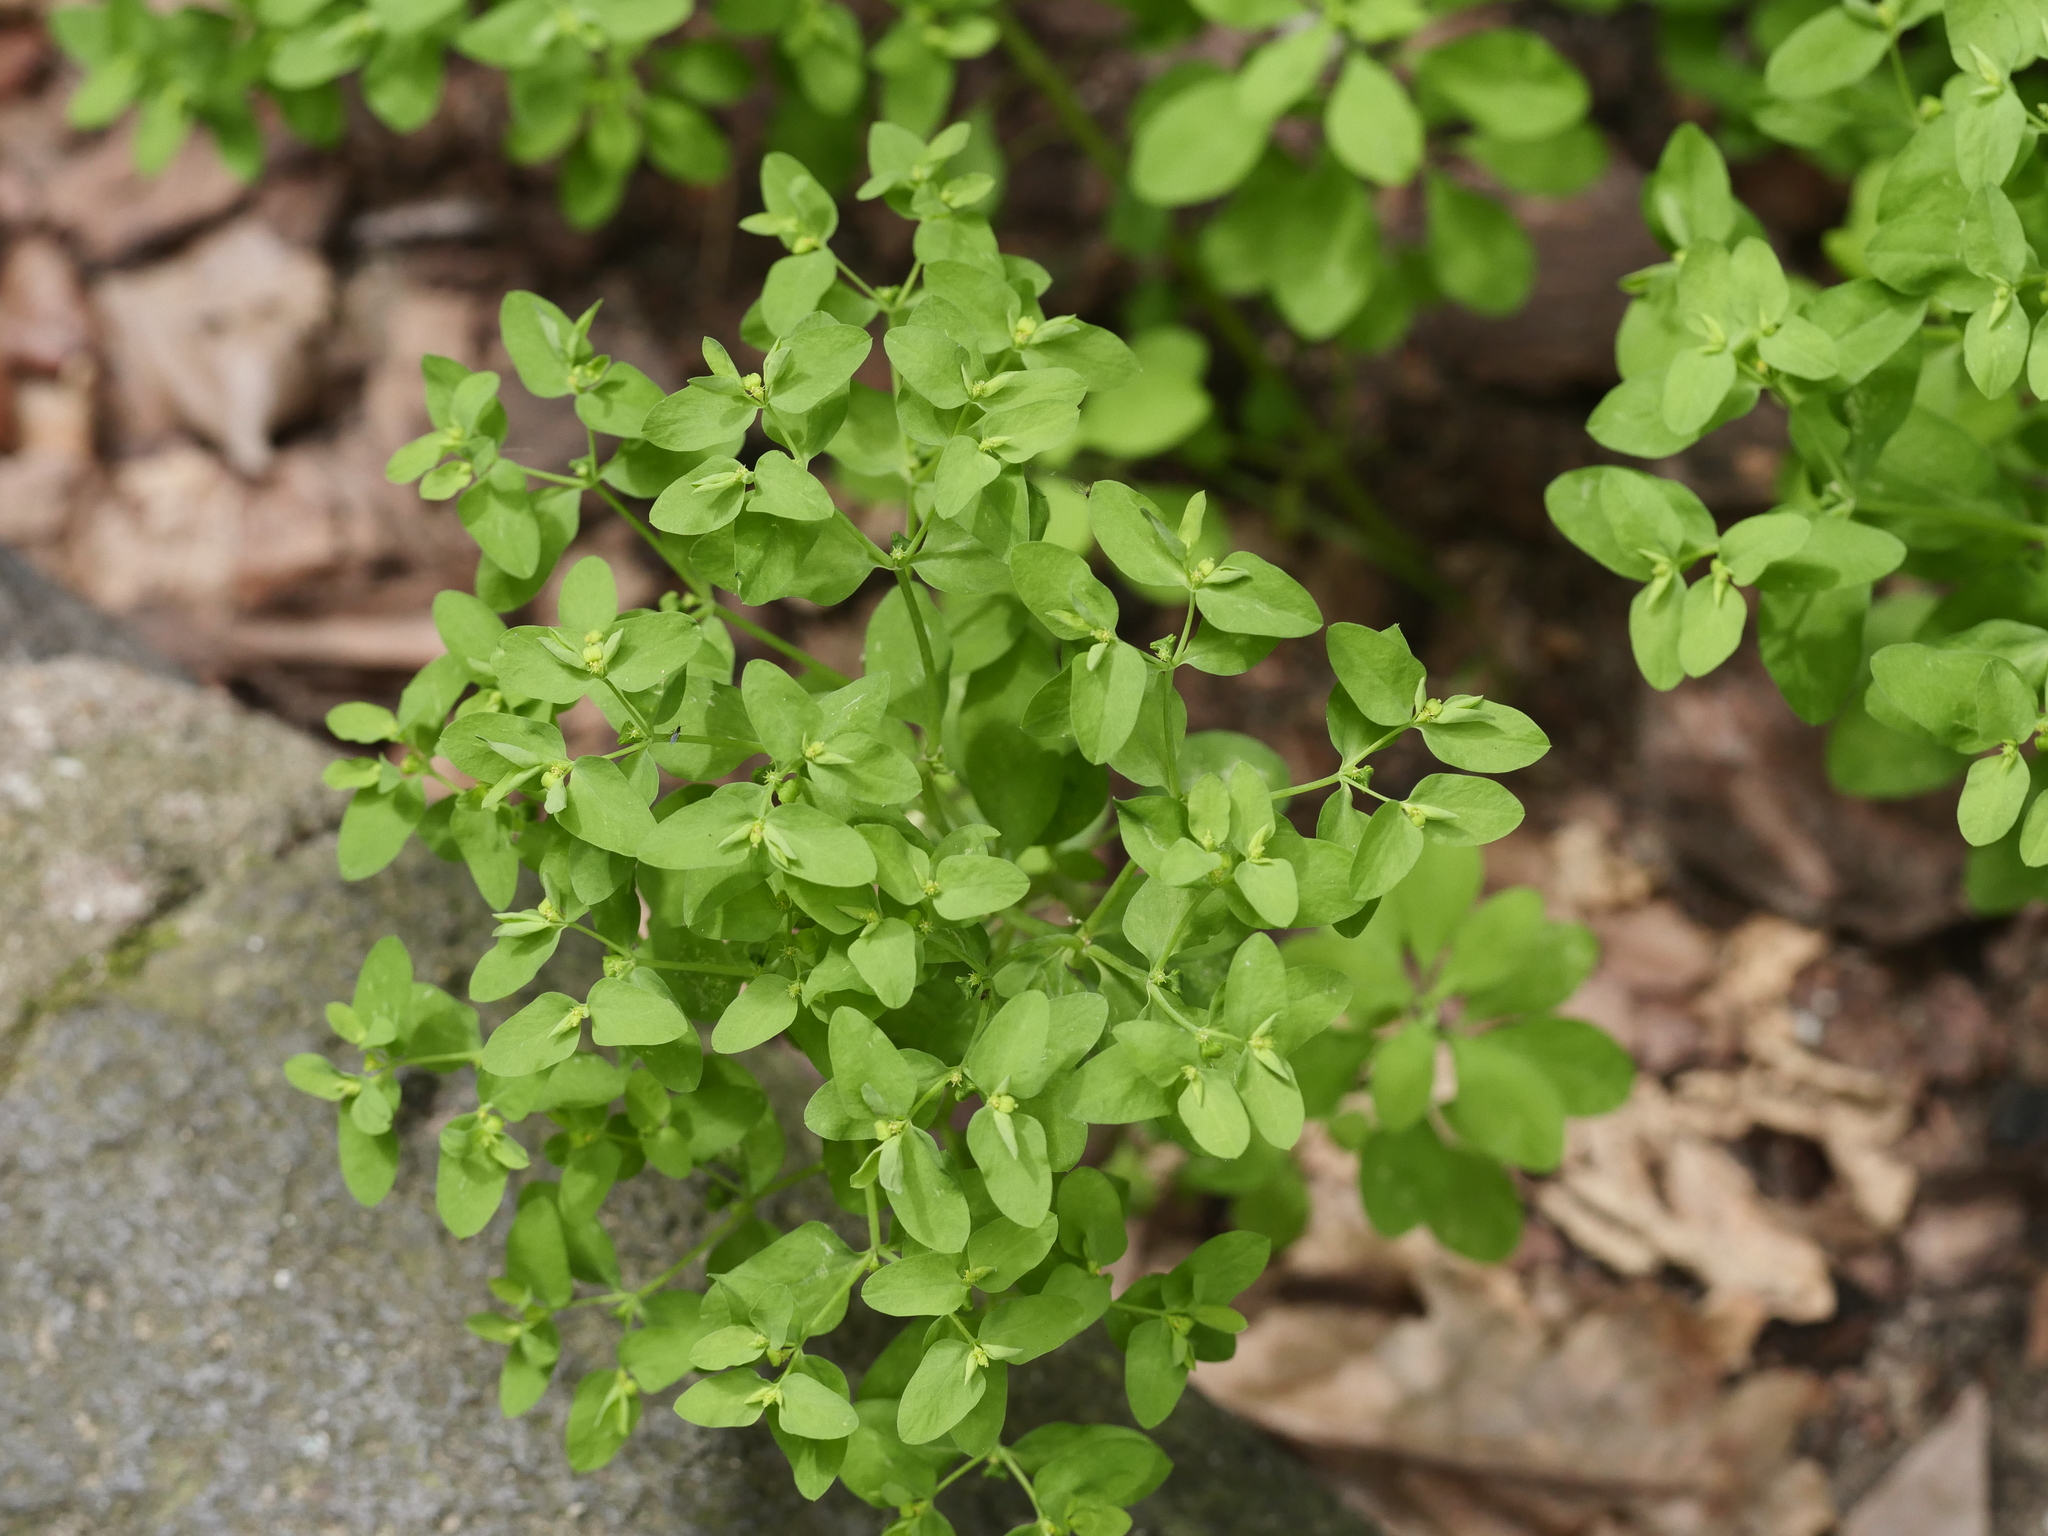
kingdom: Plantae
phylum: Tracheophyta
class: Magnoliopsida
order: Malpighiales
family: Euphorbiaceae
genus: Euphorbia
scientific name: Euphorbia peplus
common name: Petty spurge
